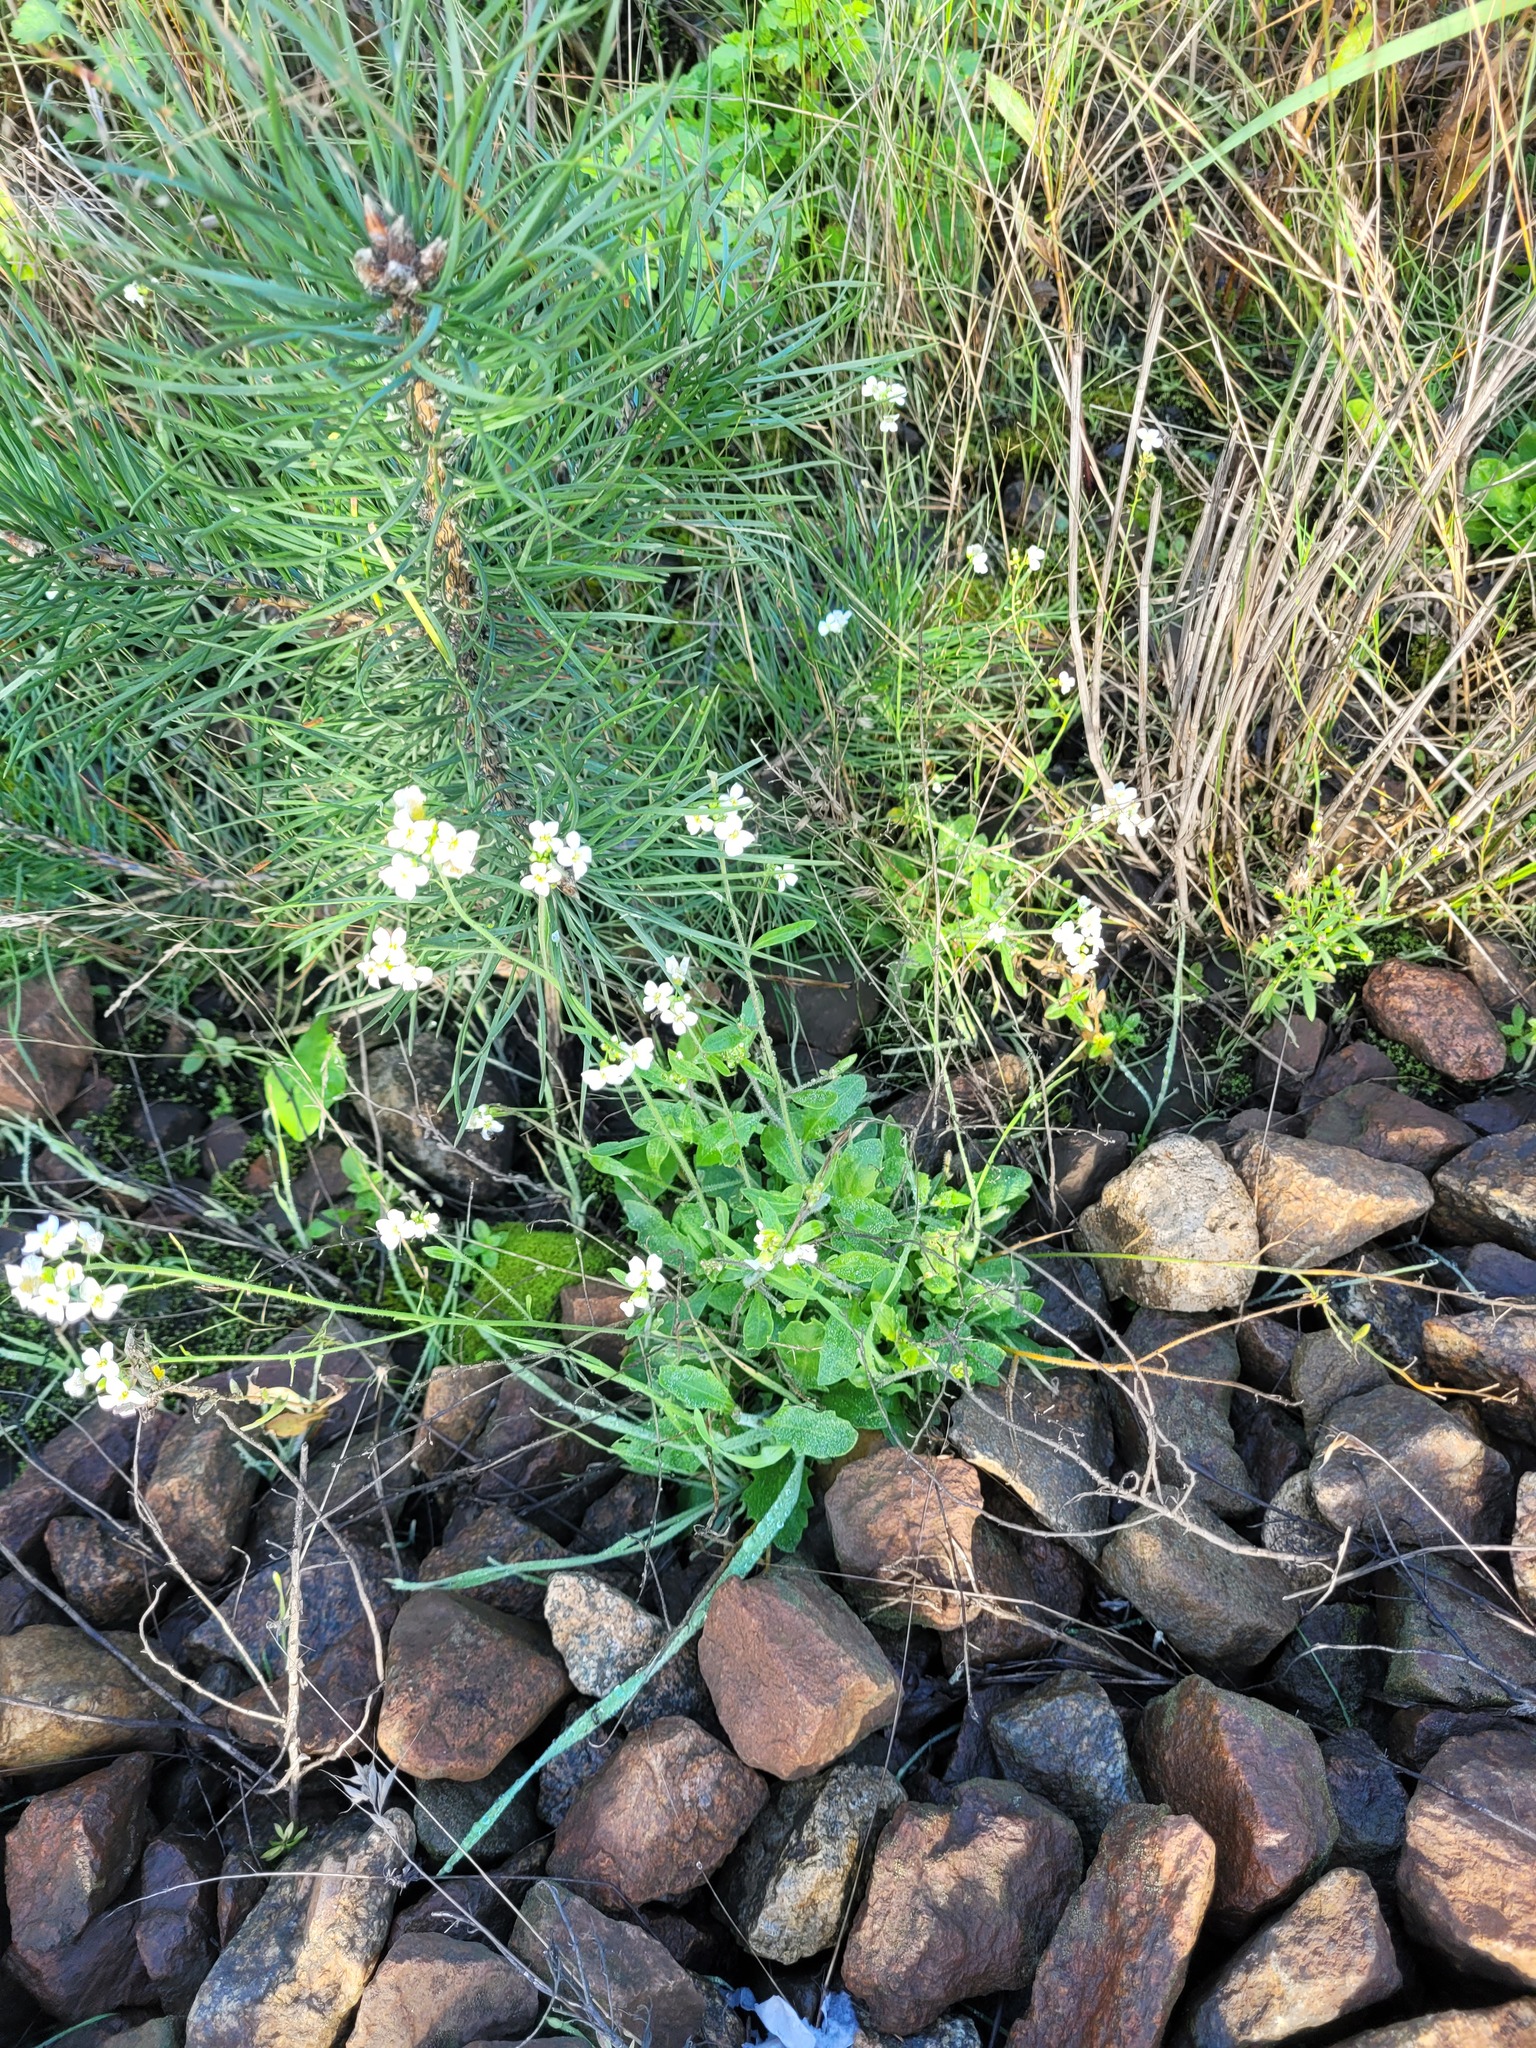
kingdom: Plantae
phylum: Tracheophyta
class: Magnoliopsida
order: Brassicales
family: Brassicaceae
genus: Arabidopsis
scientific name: Arabidopsis arenosa
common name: Sand rock-cress
